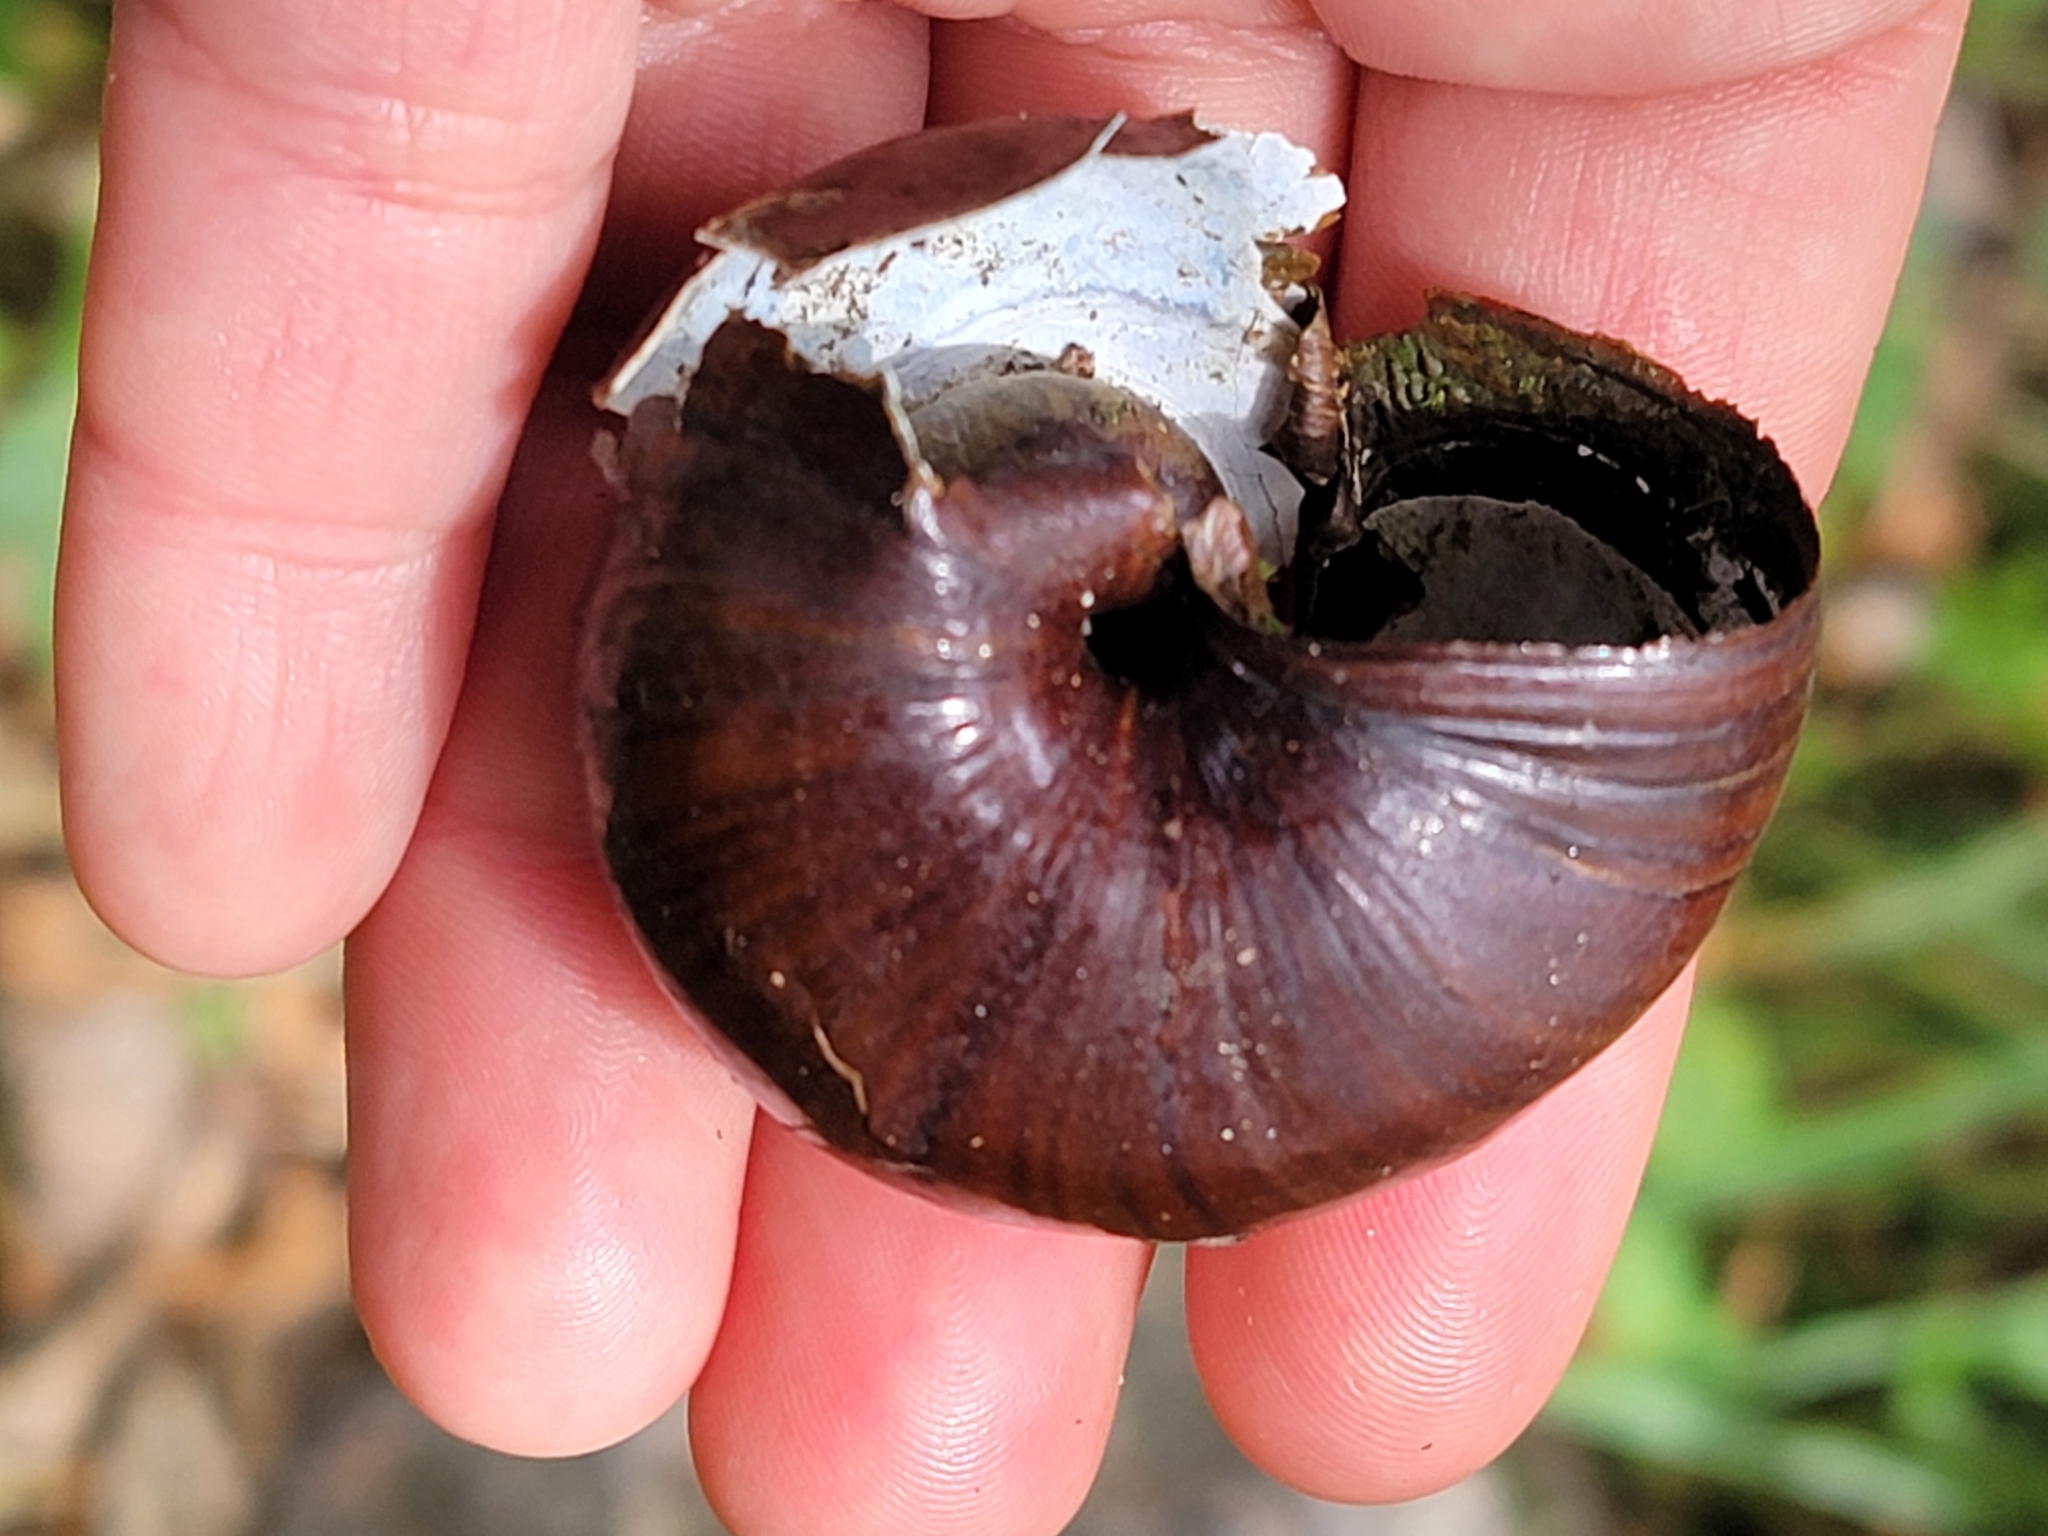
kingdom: Animalia
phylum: Mollusca
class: Gastropoda
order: Stylommatophora
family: Rhytididae
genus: Powelliphanta
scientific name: Powelliphanta annectens
